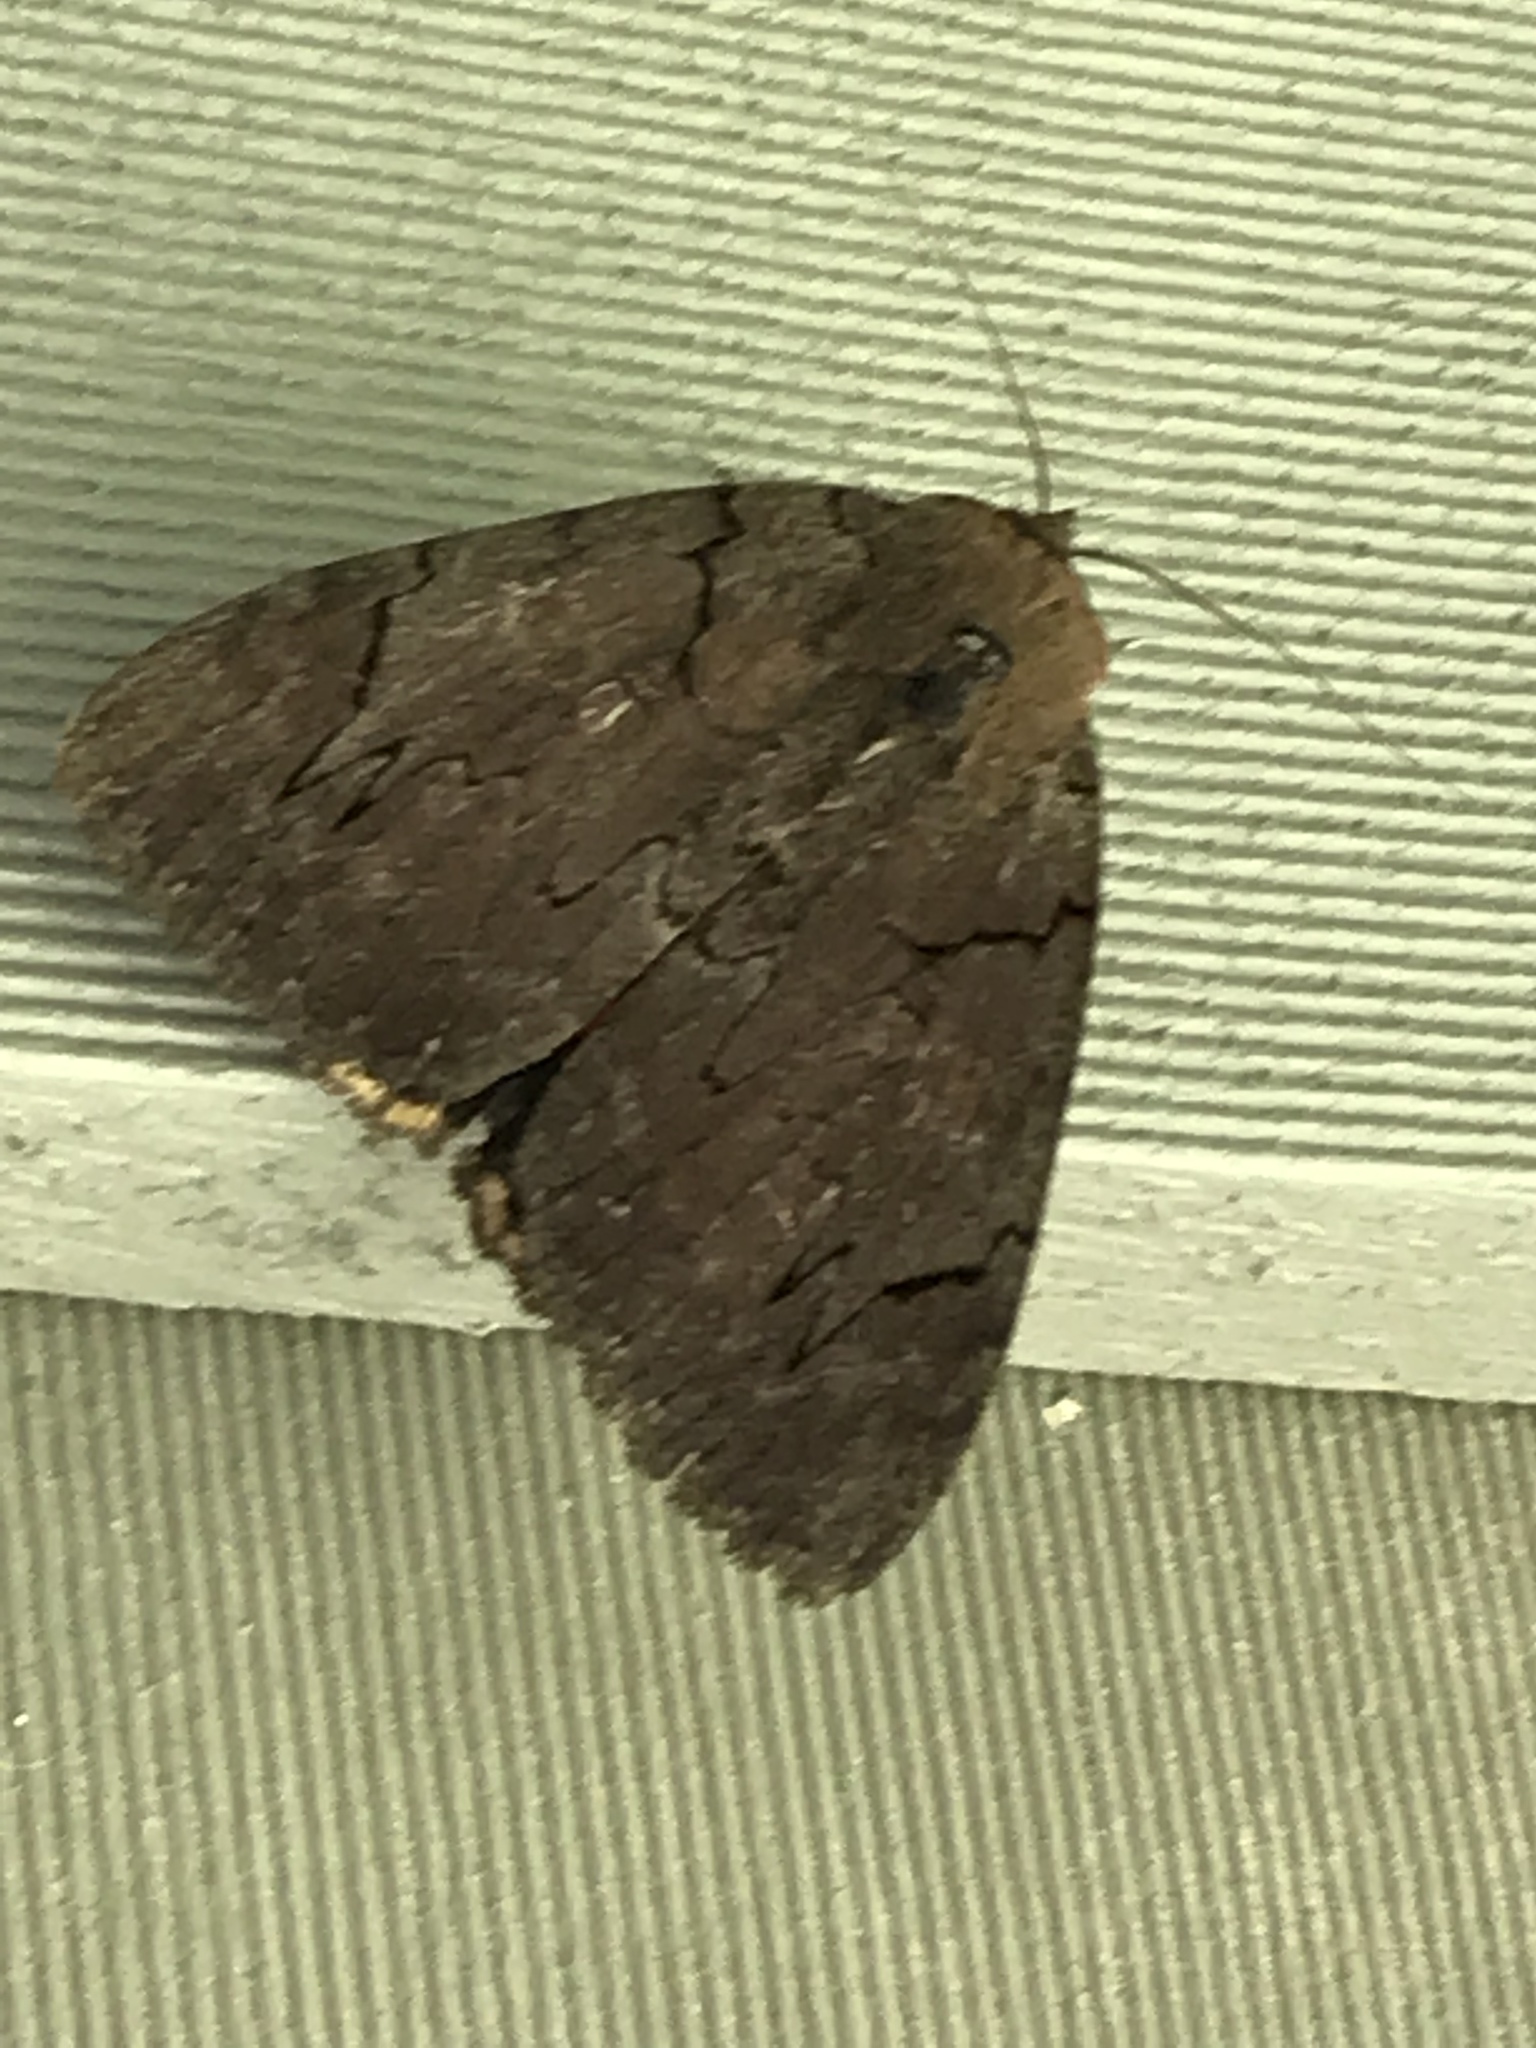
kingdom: Animalia
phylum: Arthropoda
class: Insecta
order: Lepidoptera
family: Erebidae
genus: Catocala
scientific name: Catocala cara
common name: Darling underwing
